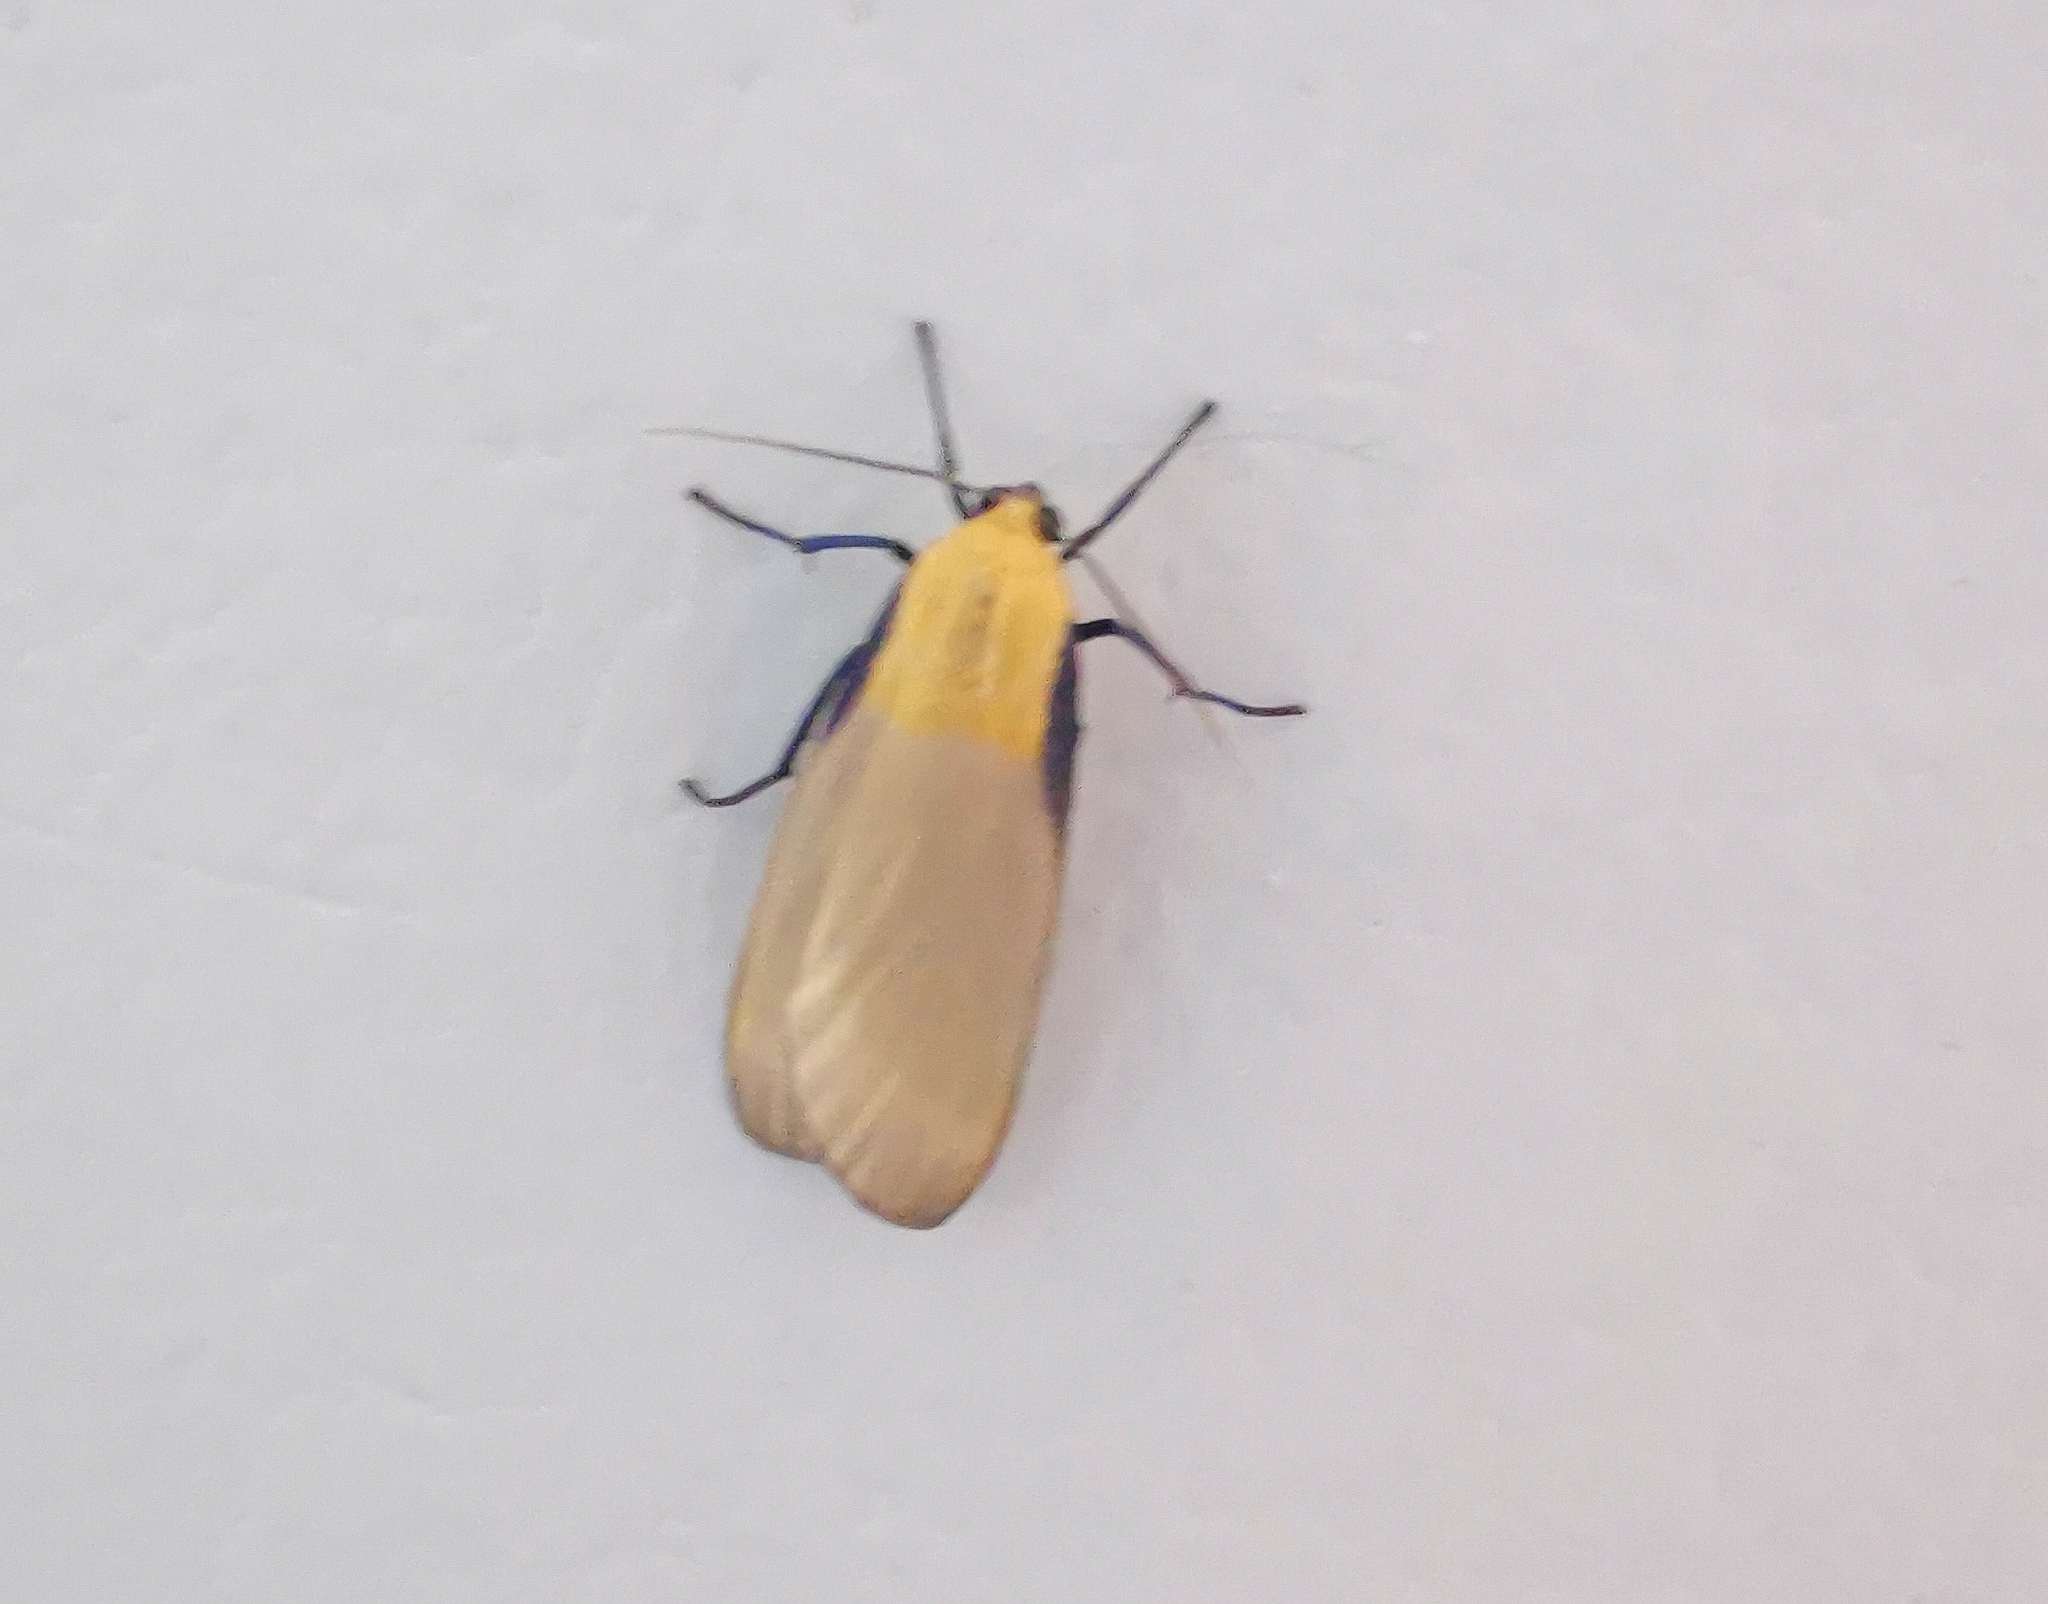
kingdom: Animalia
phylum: Arthropoda
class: Insecta
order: Lepidoptera
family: Erebidae
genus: Lithosia
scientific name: Lithosia quadra
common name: Four-spotted footman
